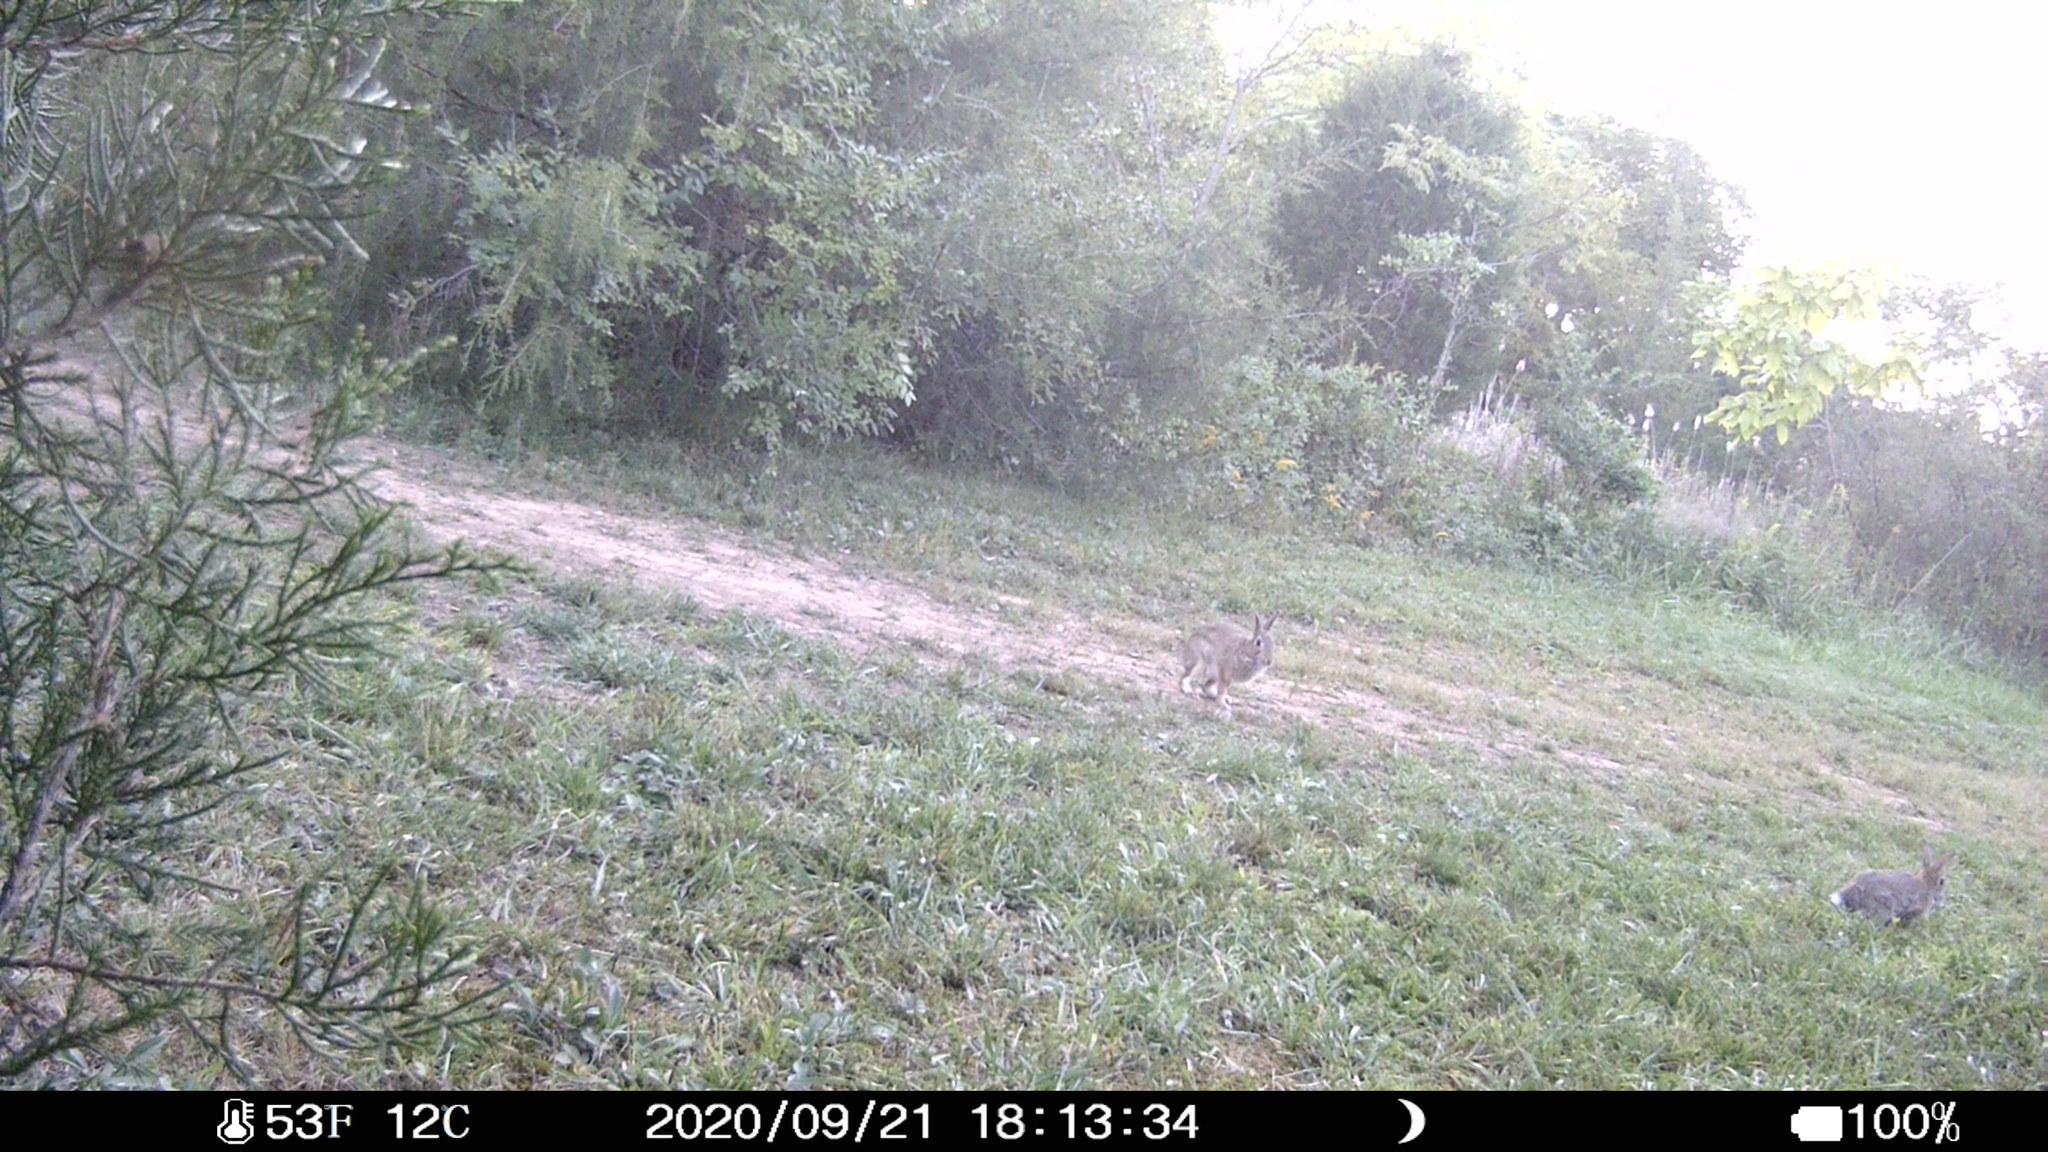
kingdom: Animalia
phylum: Chordata
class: Mammalia
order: Lagomorpha
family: Leporidae
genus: Sylvilagus
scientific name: Sylvilagus floridanus
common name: Eastern cottontail
